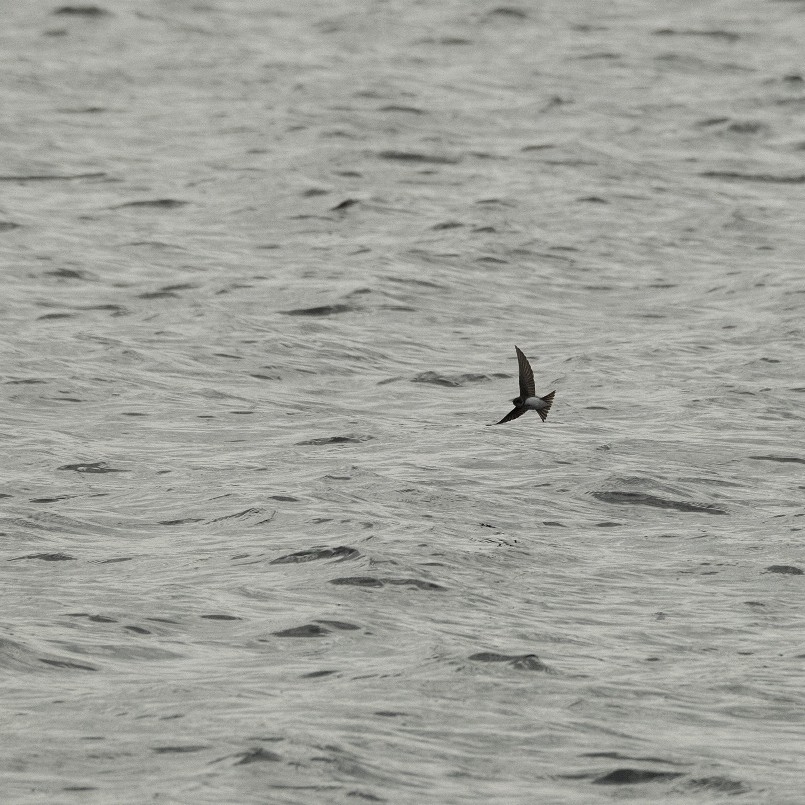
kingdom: Animalia
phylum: Chordata
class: Aves
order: Passeriformes
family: Hirundinidae
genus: Riparia
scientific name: Riparia riparia
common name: Sand martin
